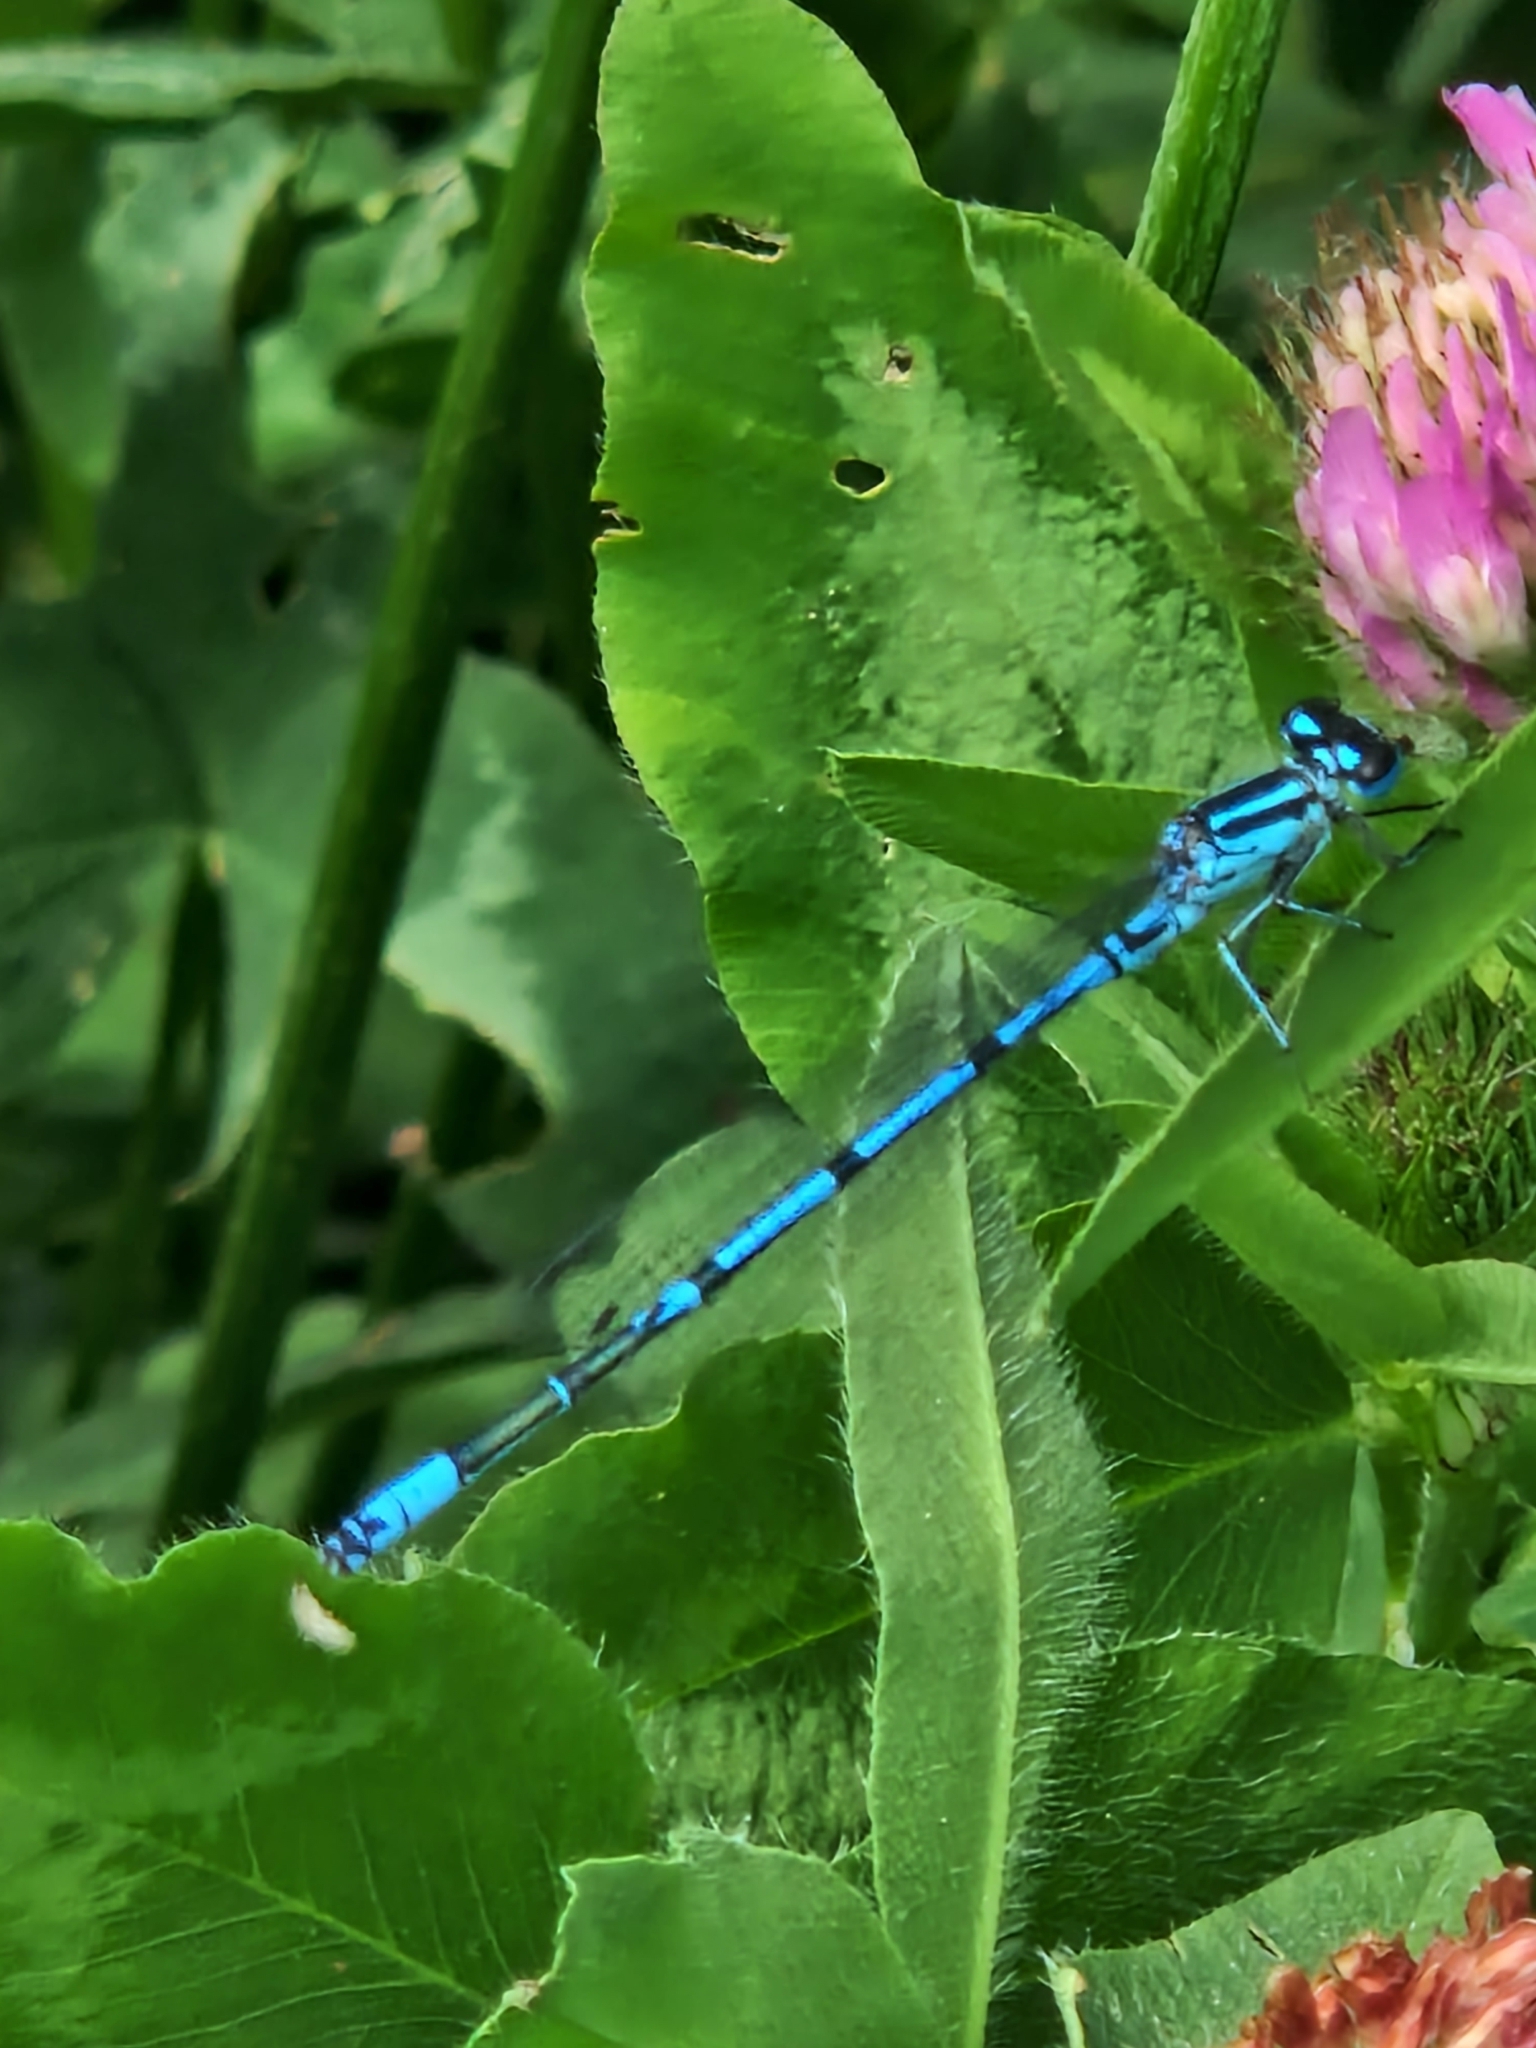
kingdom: Animalia
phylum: Arthropoda
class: Insecta
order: Odonata
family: Coenagrionidae
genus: Coenagrion
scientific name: Coenagrion puella
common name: Azure damselfly
